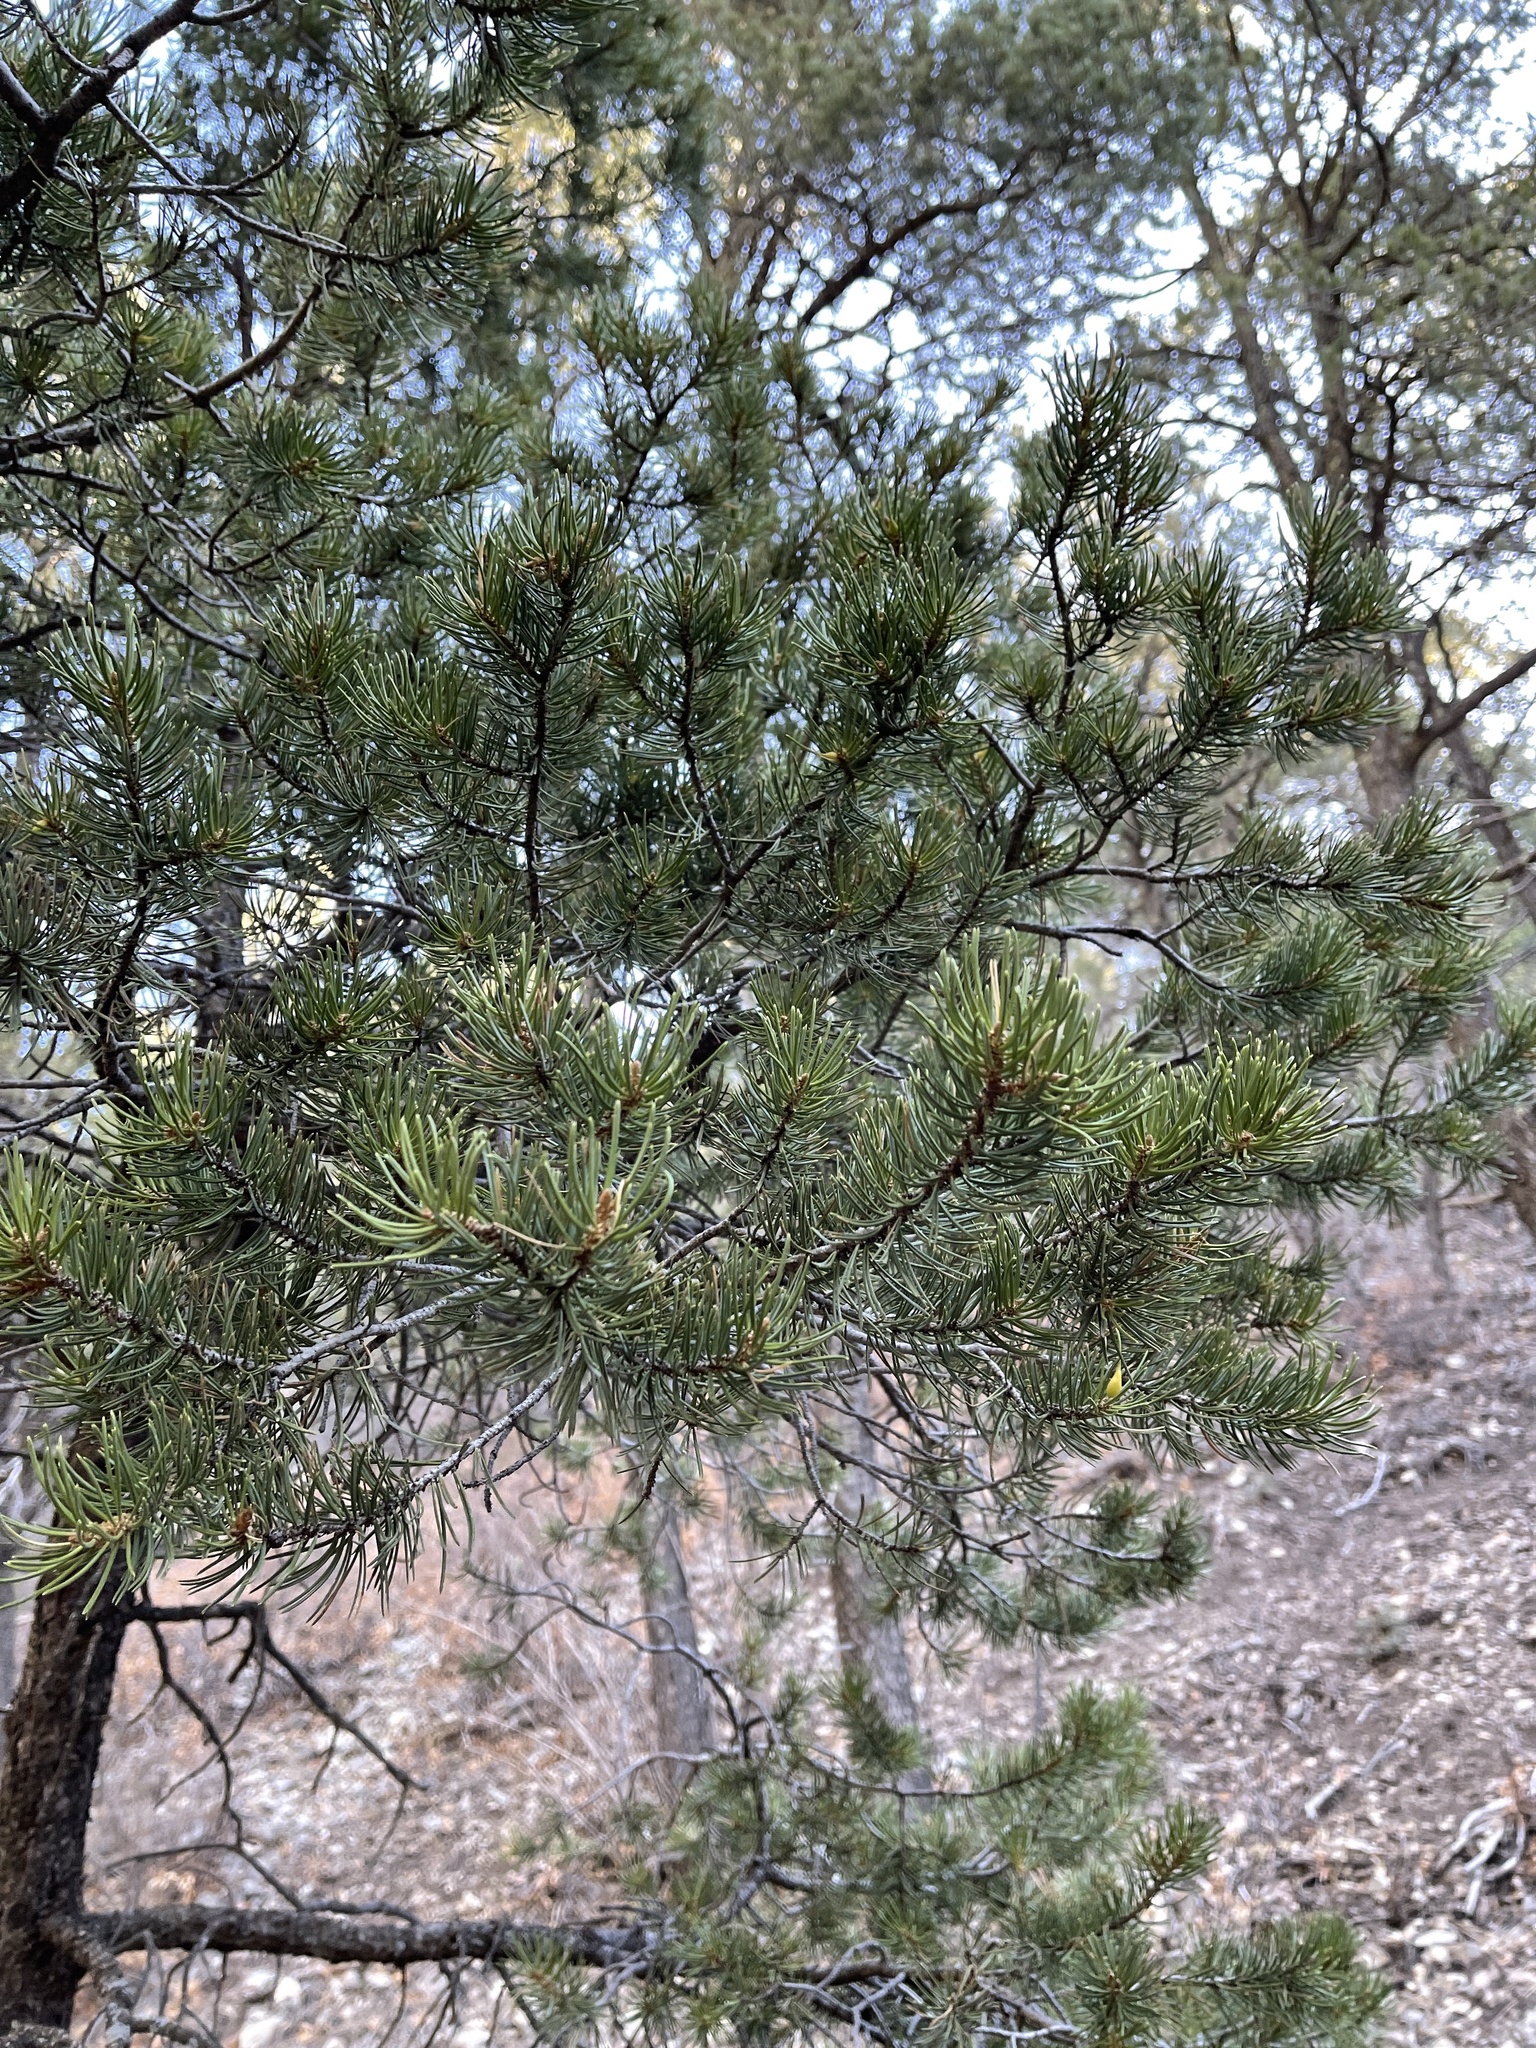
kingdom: Plantae
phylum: Tracheophyta
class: Pinopsida
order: Pinales
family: Pinaceae
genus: Pinus
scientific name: Pinus edulis
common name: Colorado pinyon
